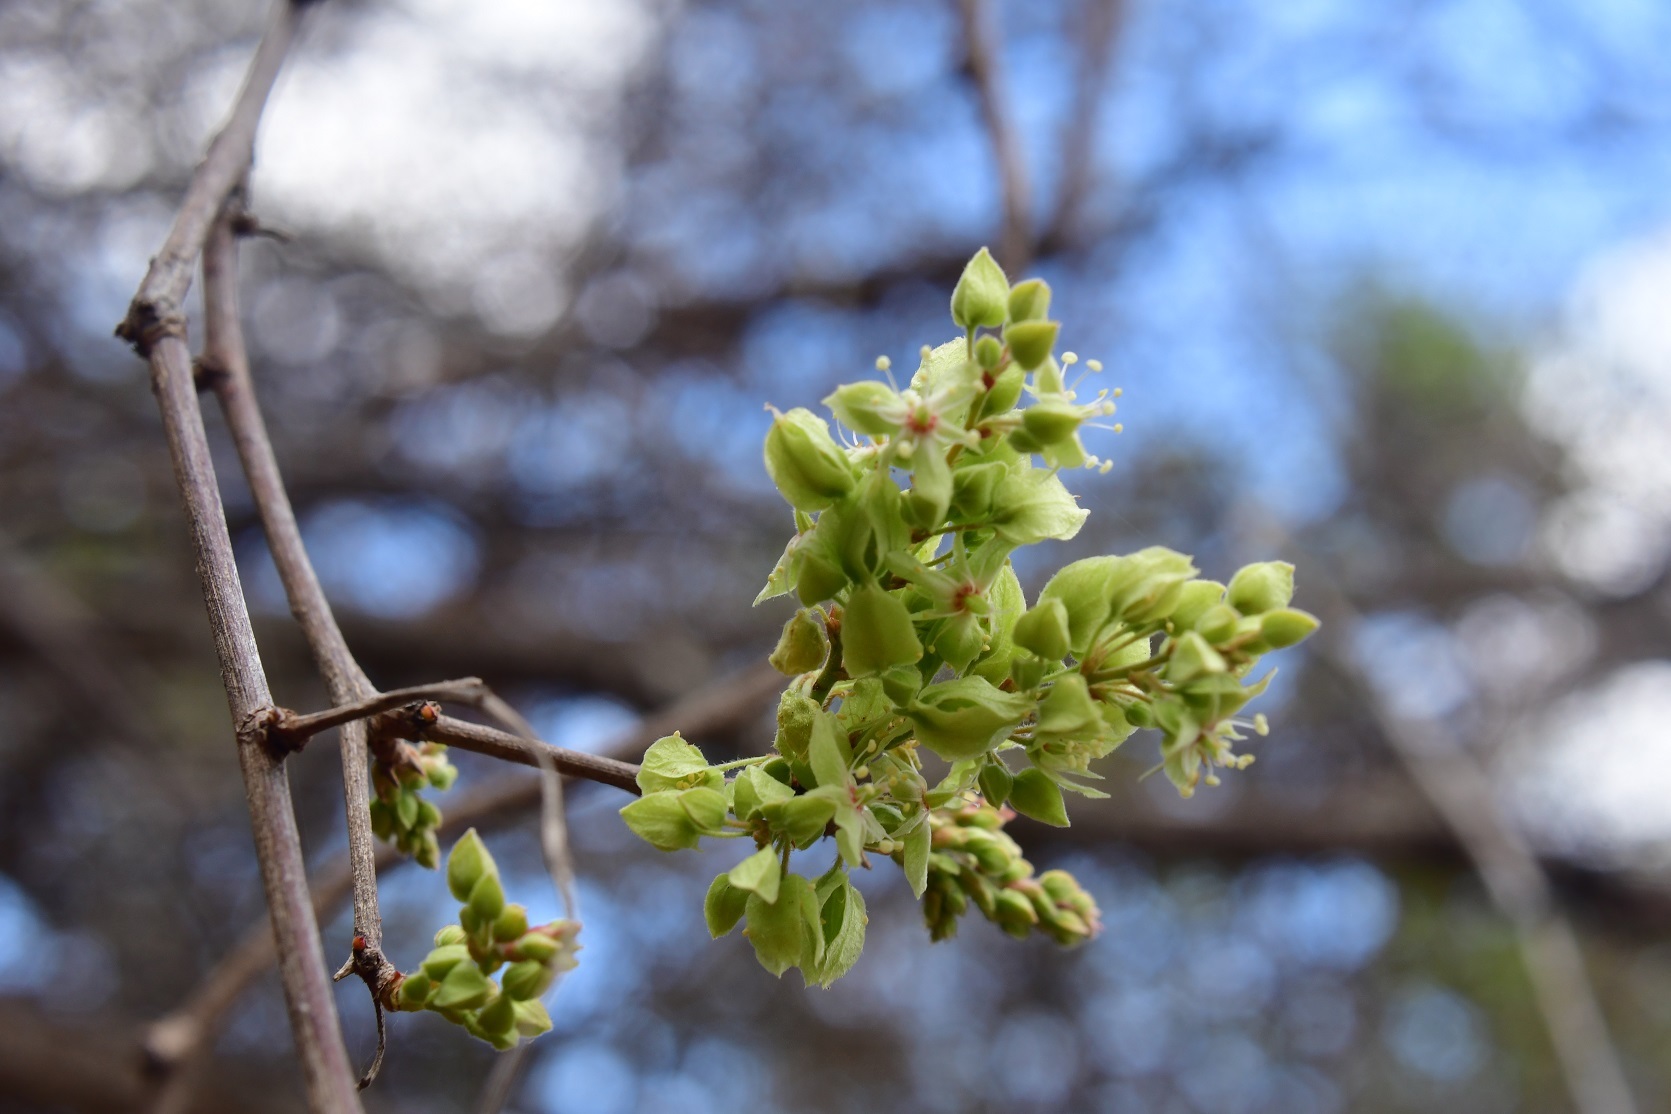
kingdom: Plantae
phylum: Tracheophyta
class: Magnoliopsida
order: Caryophyllales
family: Polygonaceae
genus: Gymnopodium
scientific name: Gymnopodium floribundum
